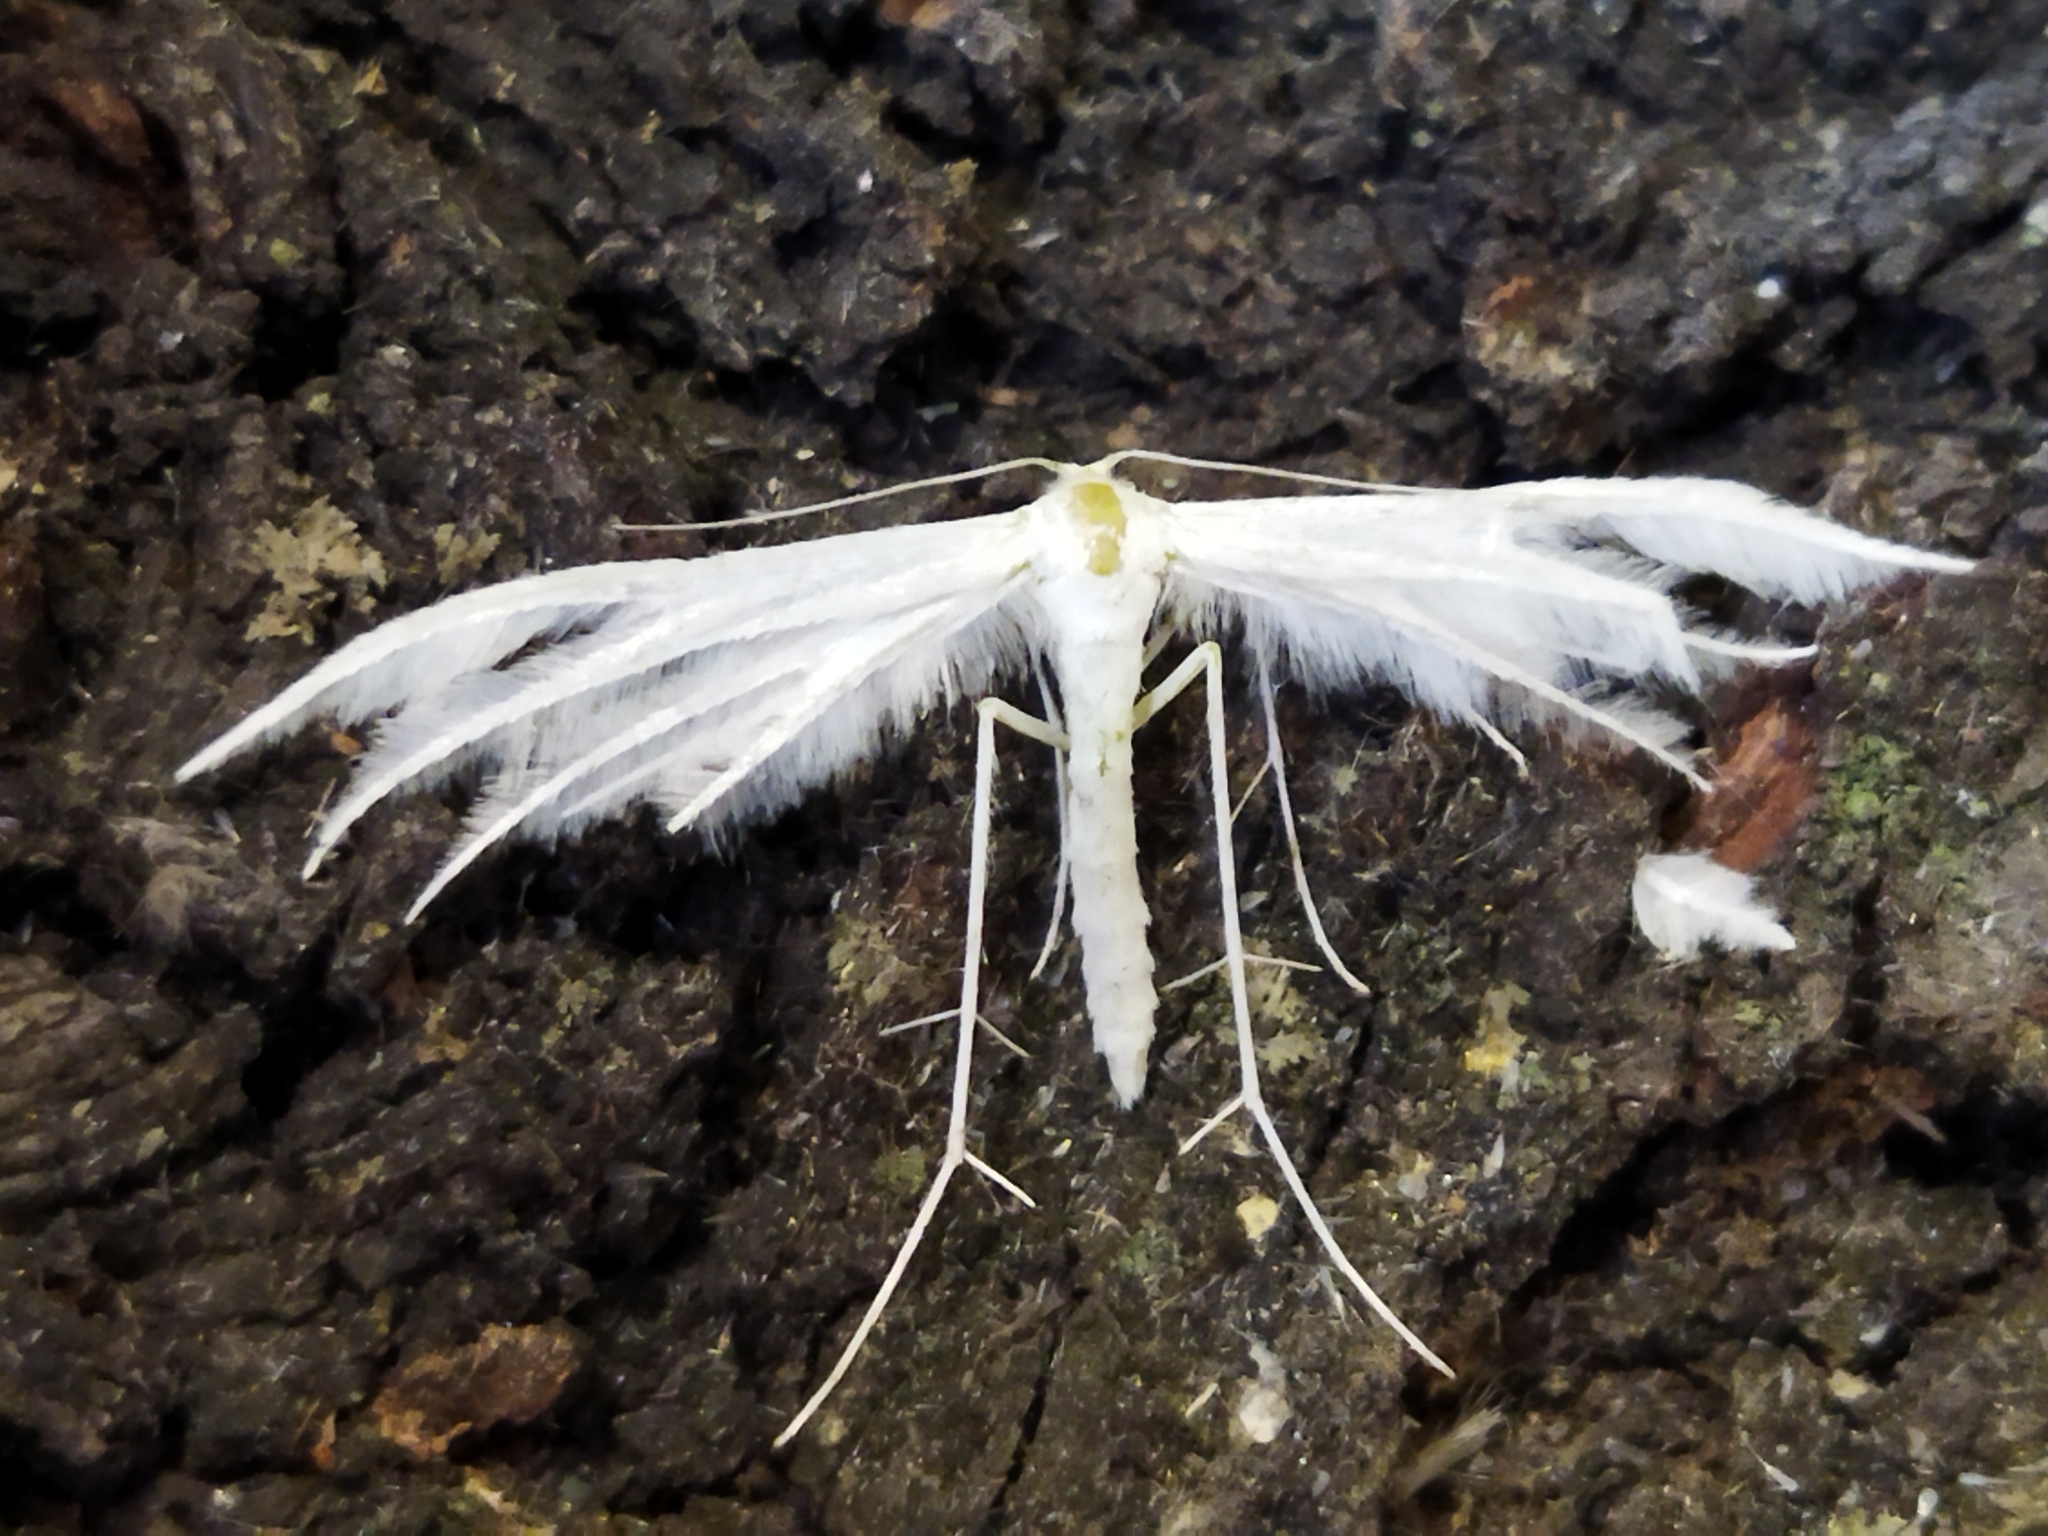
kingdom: Animalia
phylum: Arthropoda
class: Insecta
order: Lepidoptera
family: Pterophoridae
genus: Pterophorus
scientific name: Pterophorus pentadactyla
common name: White plume moth
